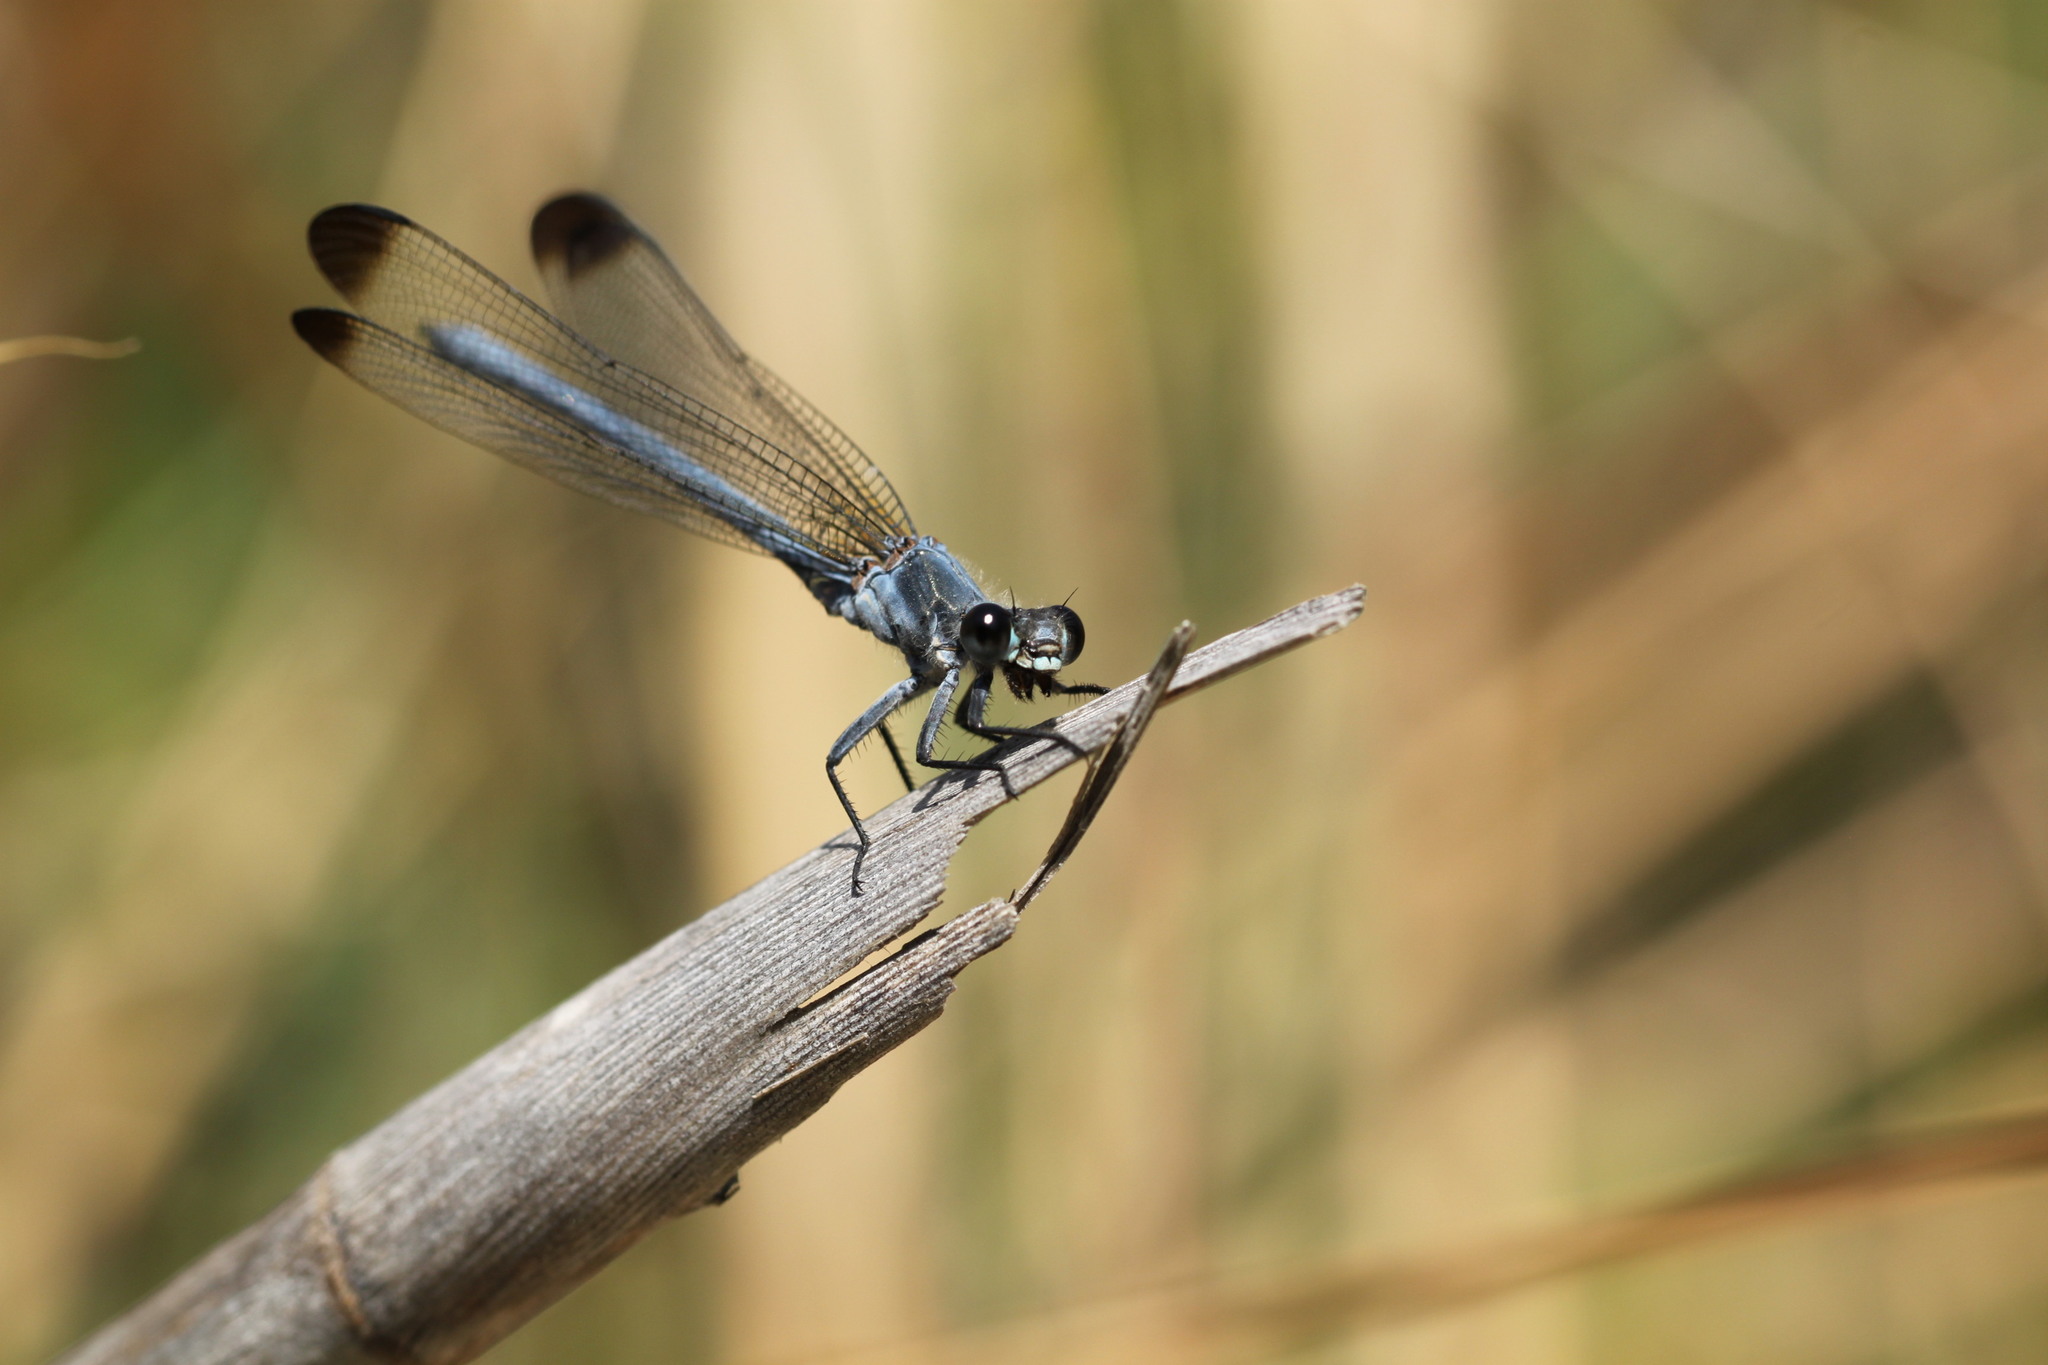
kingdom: Animalia
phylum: Arthropoda
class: Insecta
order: Odonata
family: Euphaeidae
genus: Epallage
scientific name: Epallage fatime
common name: Odalisque
